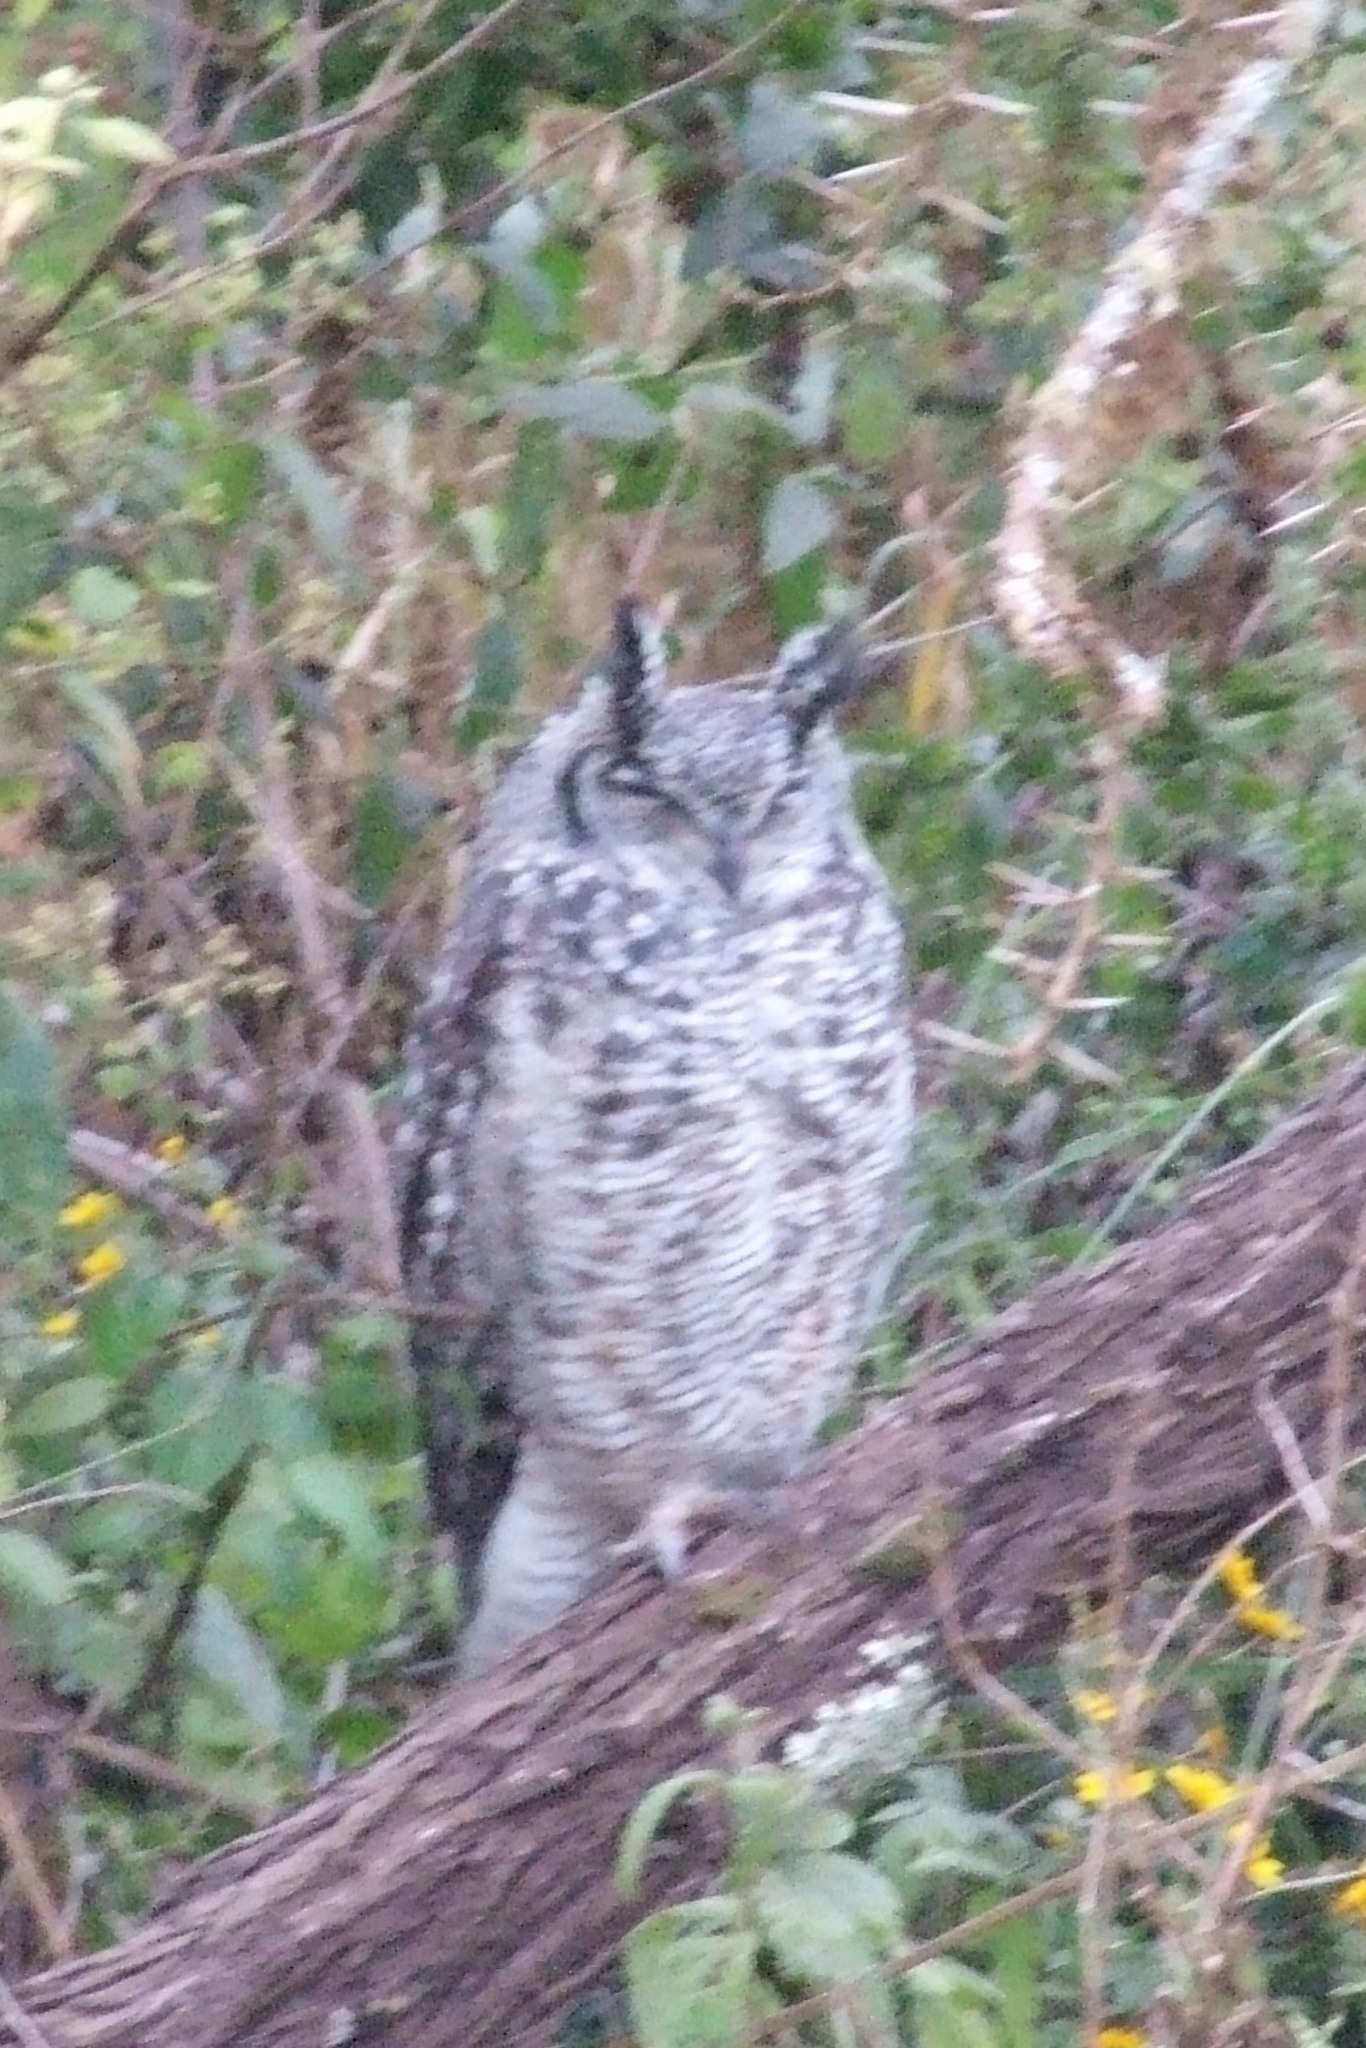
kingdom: Animalia
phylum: Chordata
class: Aves
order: Strigiformes
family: Strigidae
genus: Bubo
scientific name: Bubo africanus
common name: Spotted eagle-owl
